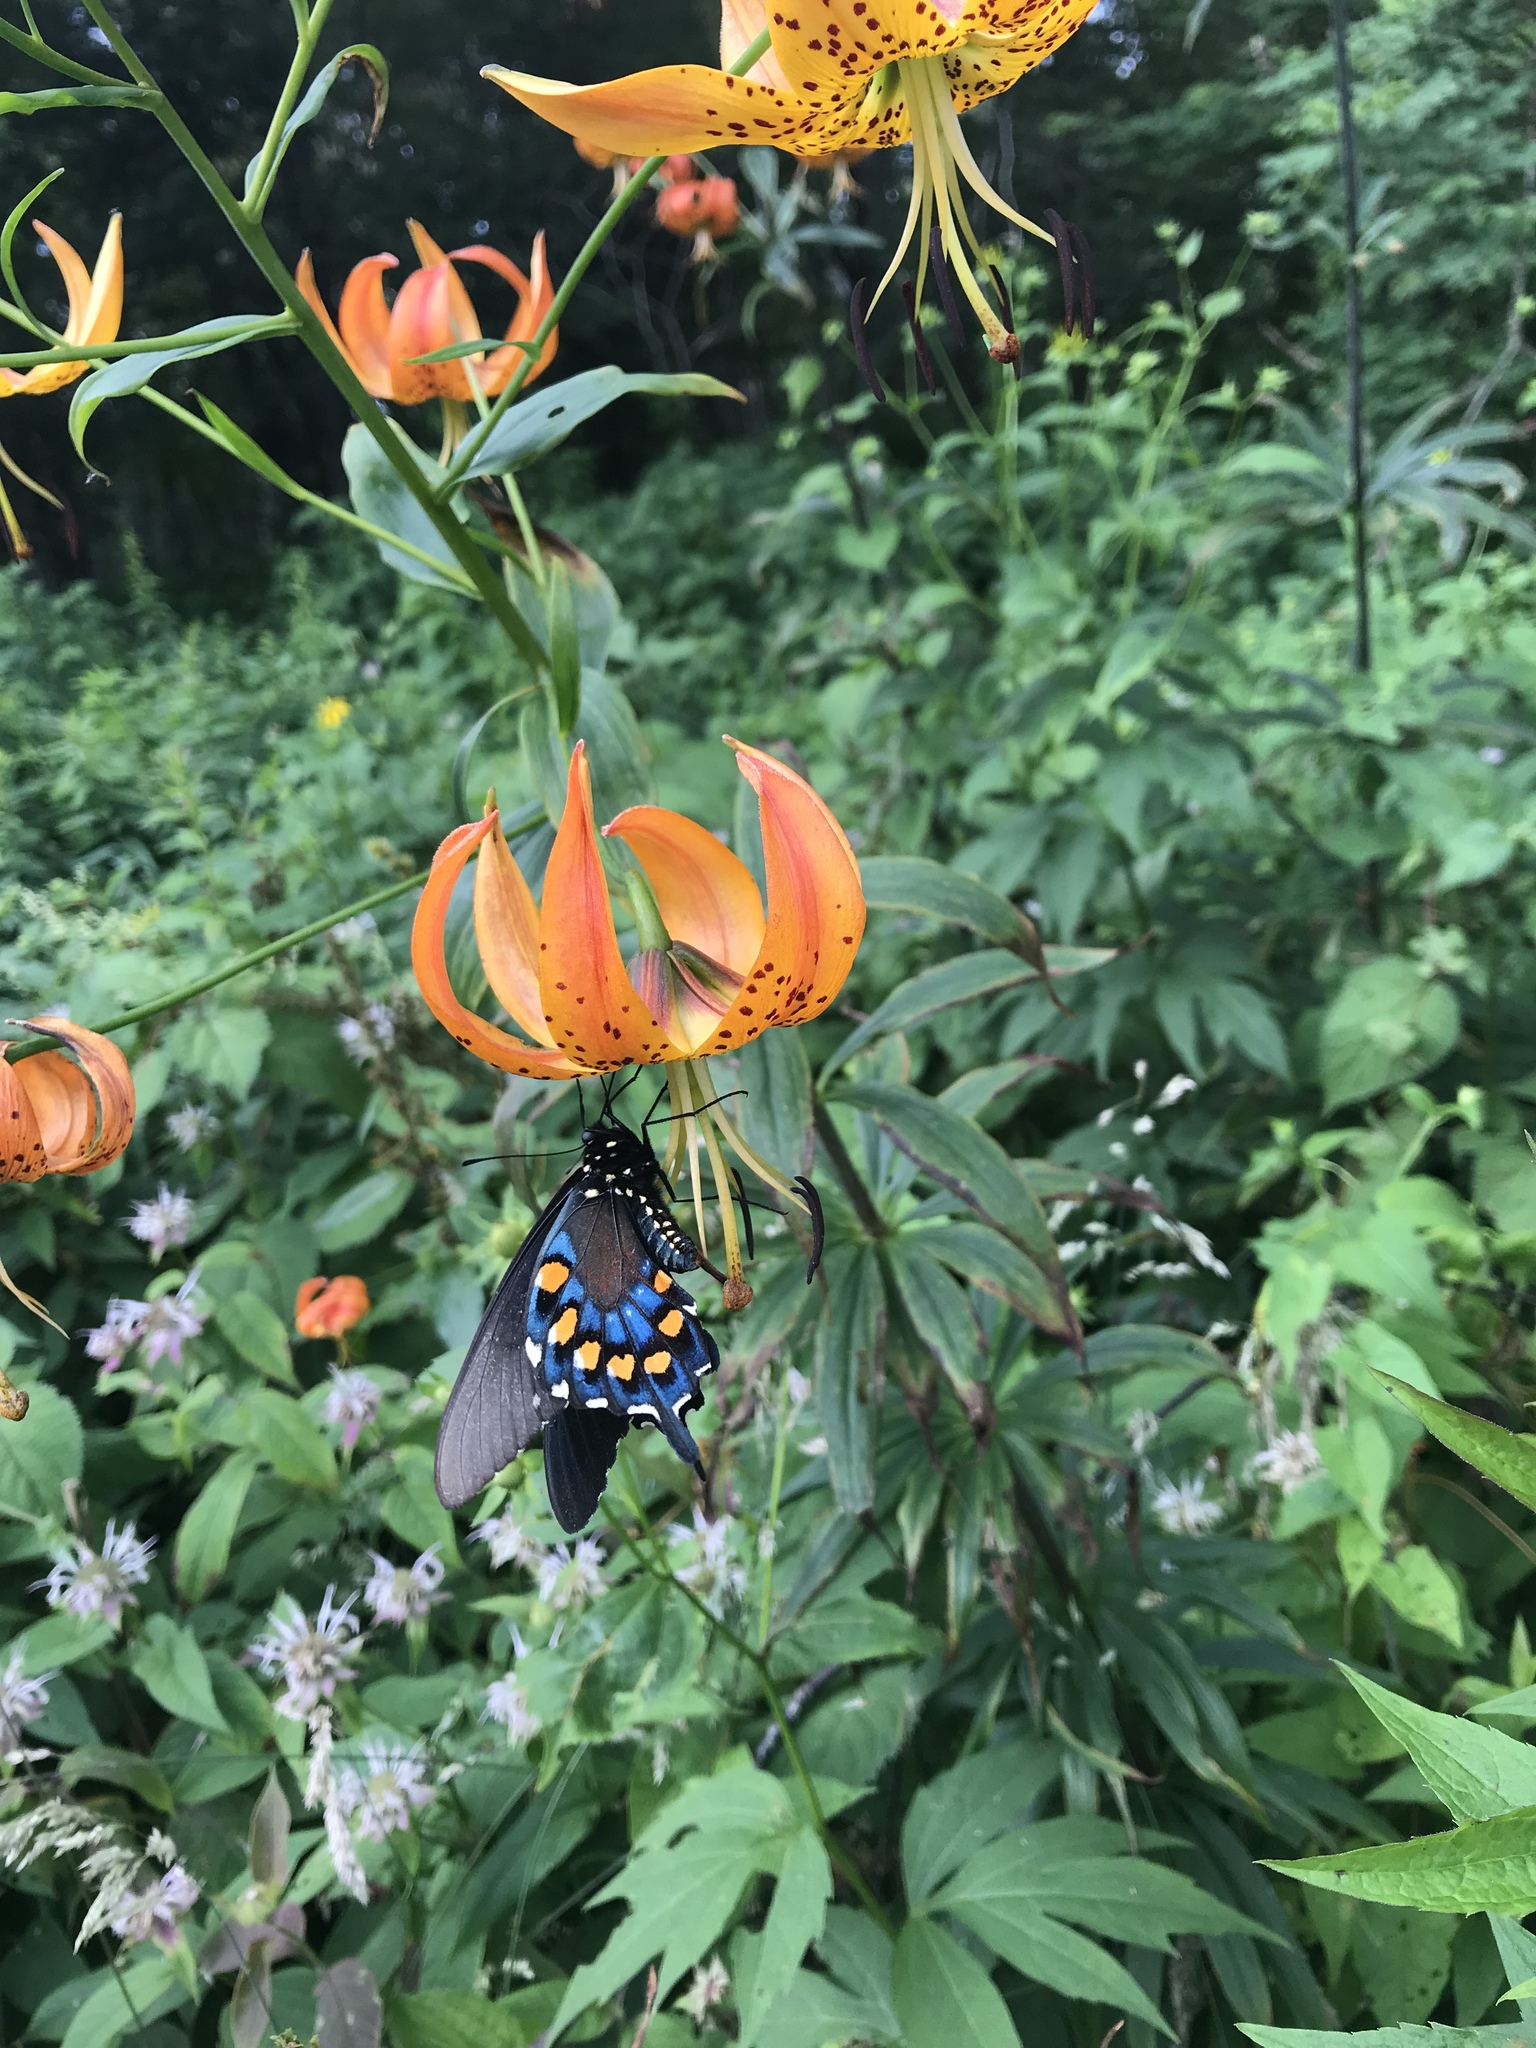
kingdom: Animalia
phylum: Arthropoda
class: Insecta
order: Lepidoptera
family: Papilionidae
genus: Battus
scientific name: Battus philenor
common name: Pipevine swallowtail
